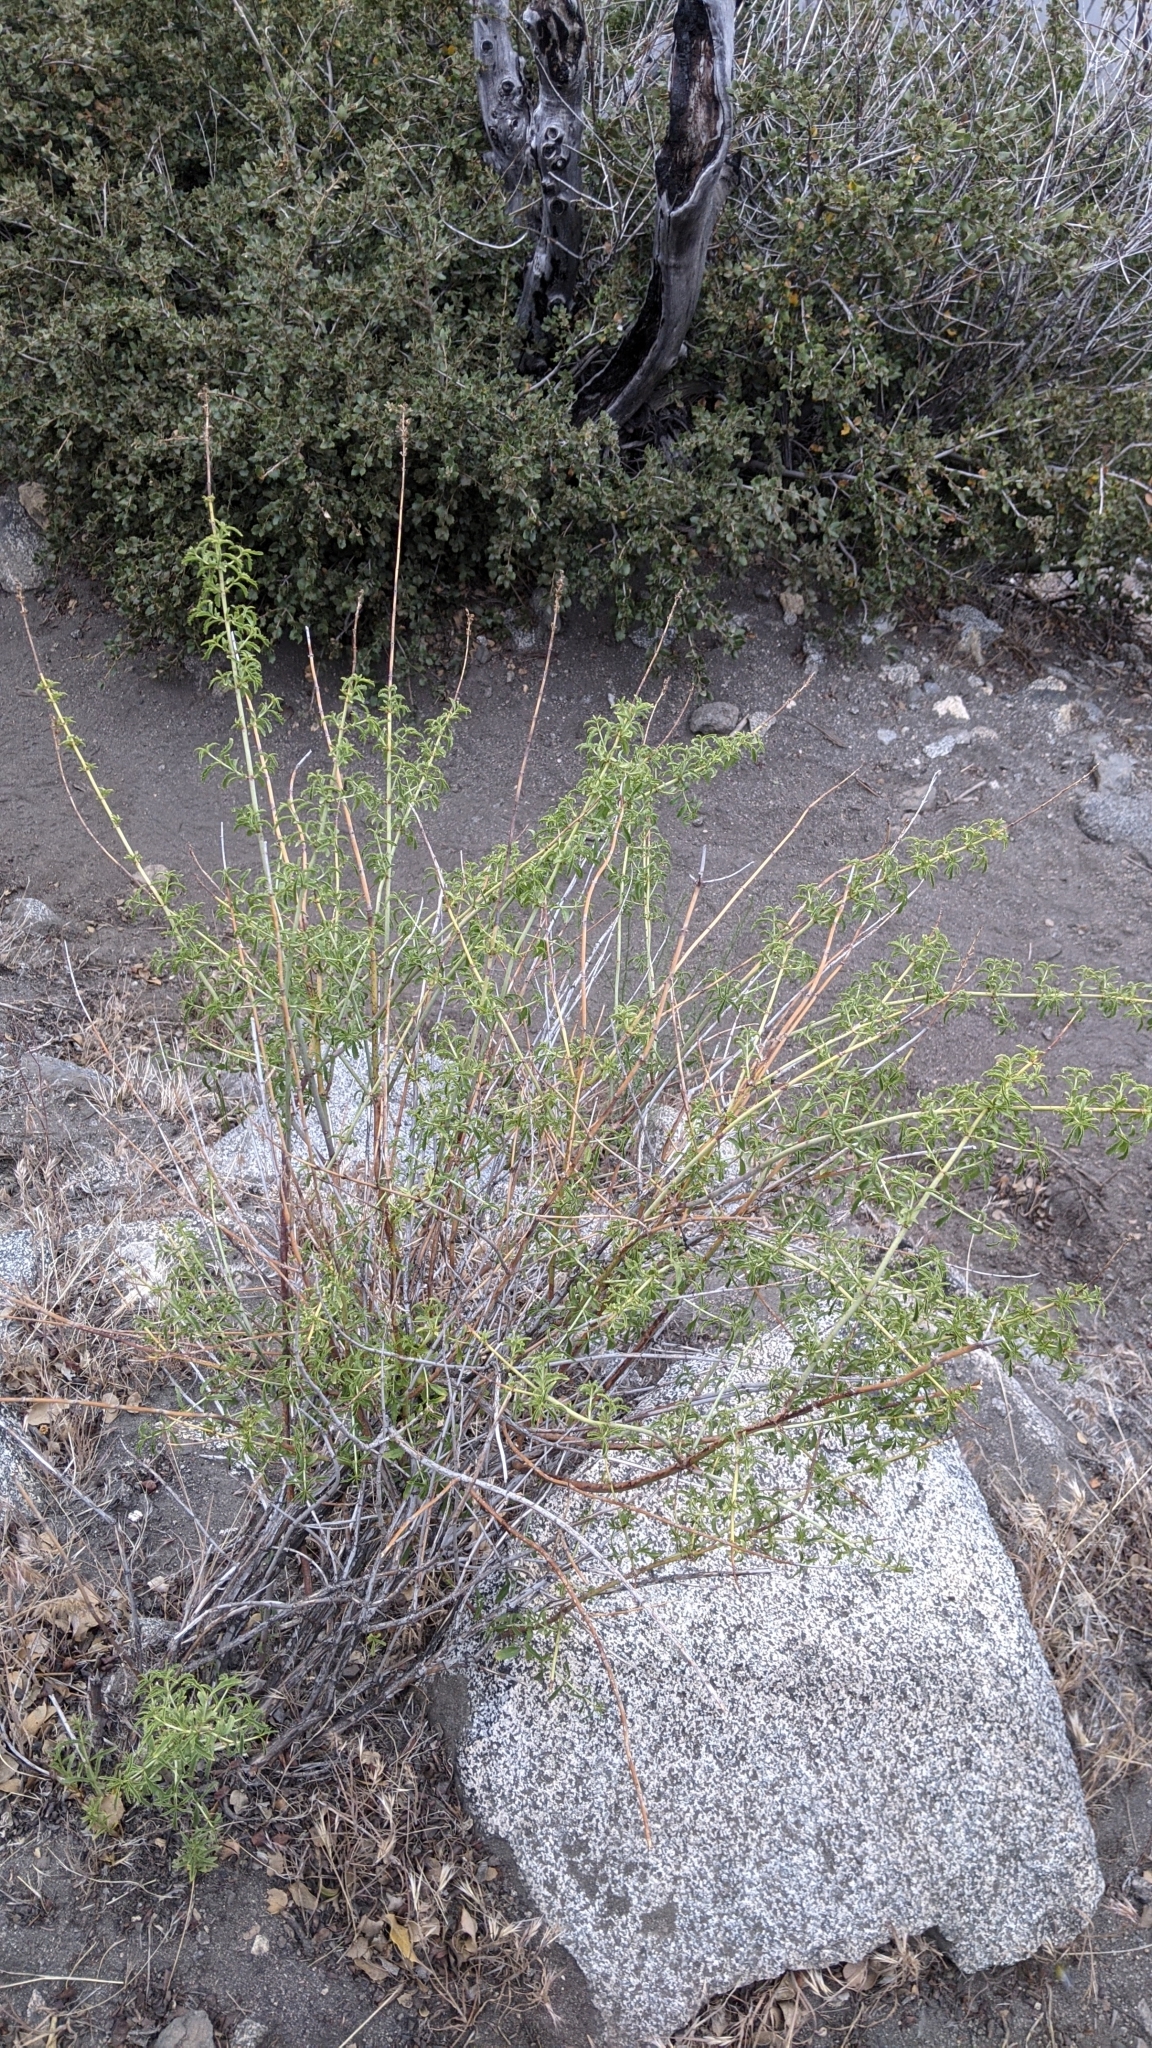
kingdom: Plantae
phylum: Tracheophyta
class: Magnoliopsida
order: Lamiales
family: Plantaginaceae
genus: Keckiella
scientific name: Keckiella ternata
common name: Scarlet keckiella
